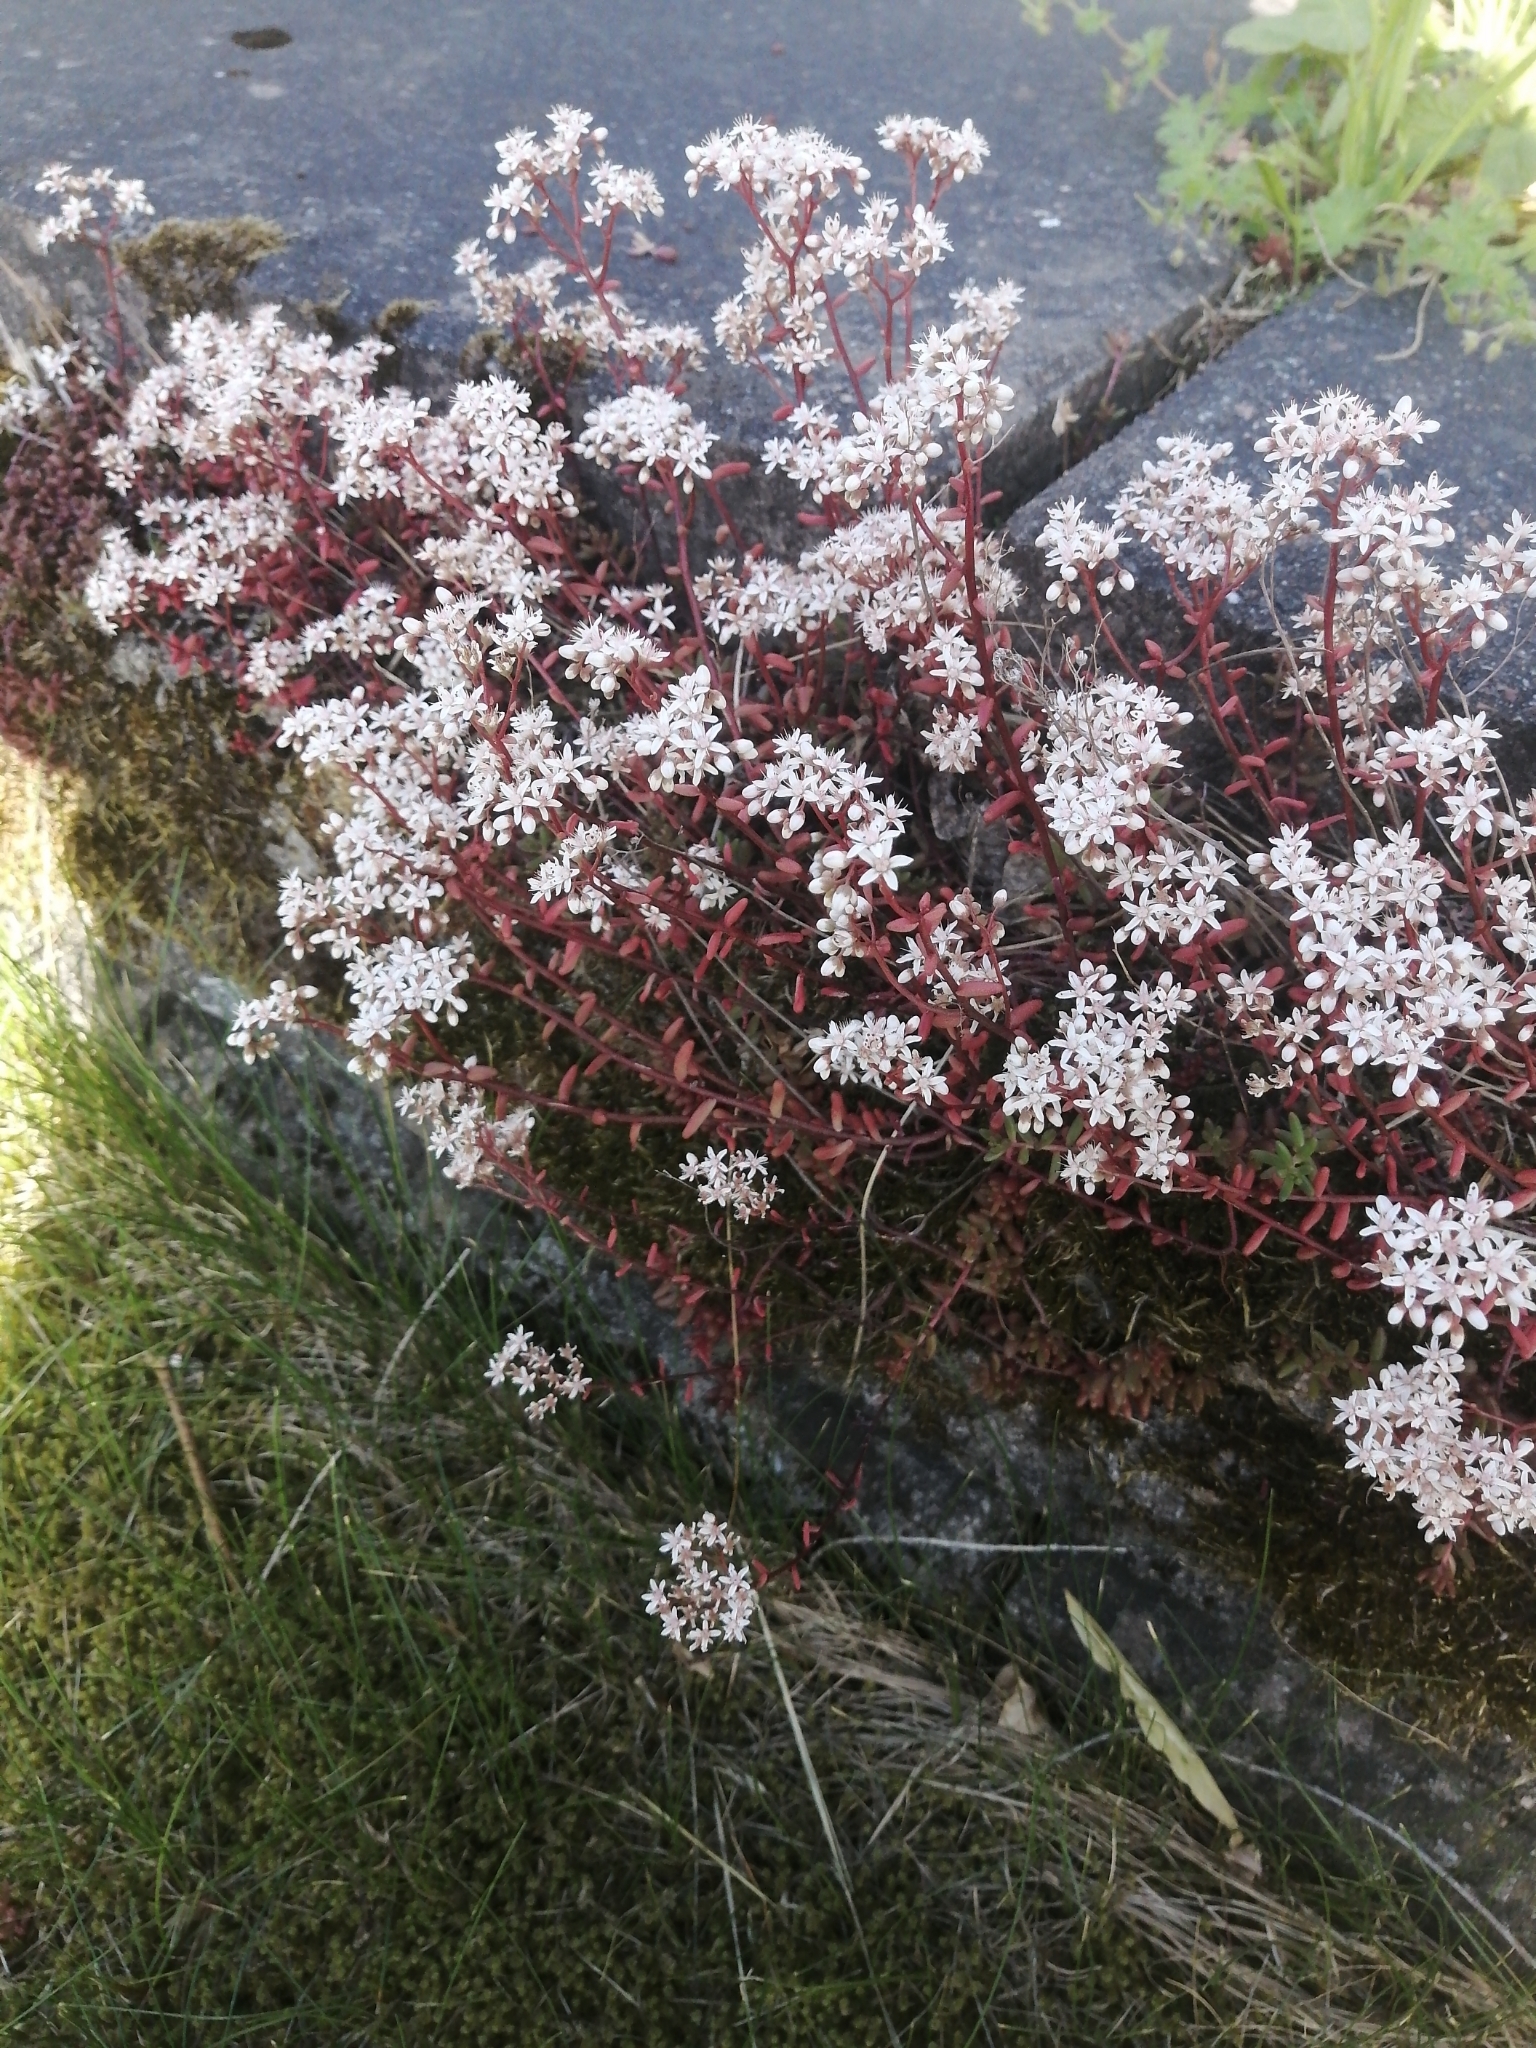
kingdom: Plantae
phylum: Tracheophyta
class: Magnoliopsida
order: Saxifragales
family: Crassulaceae
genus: Sedum
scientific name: Sedum album
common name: White stonecrop
